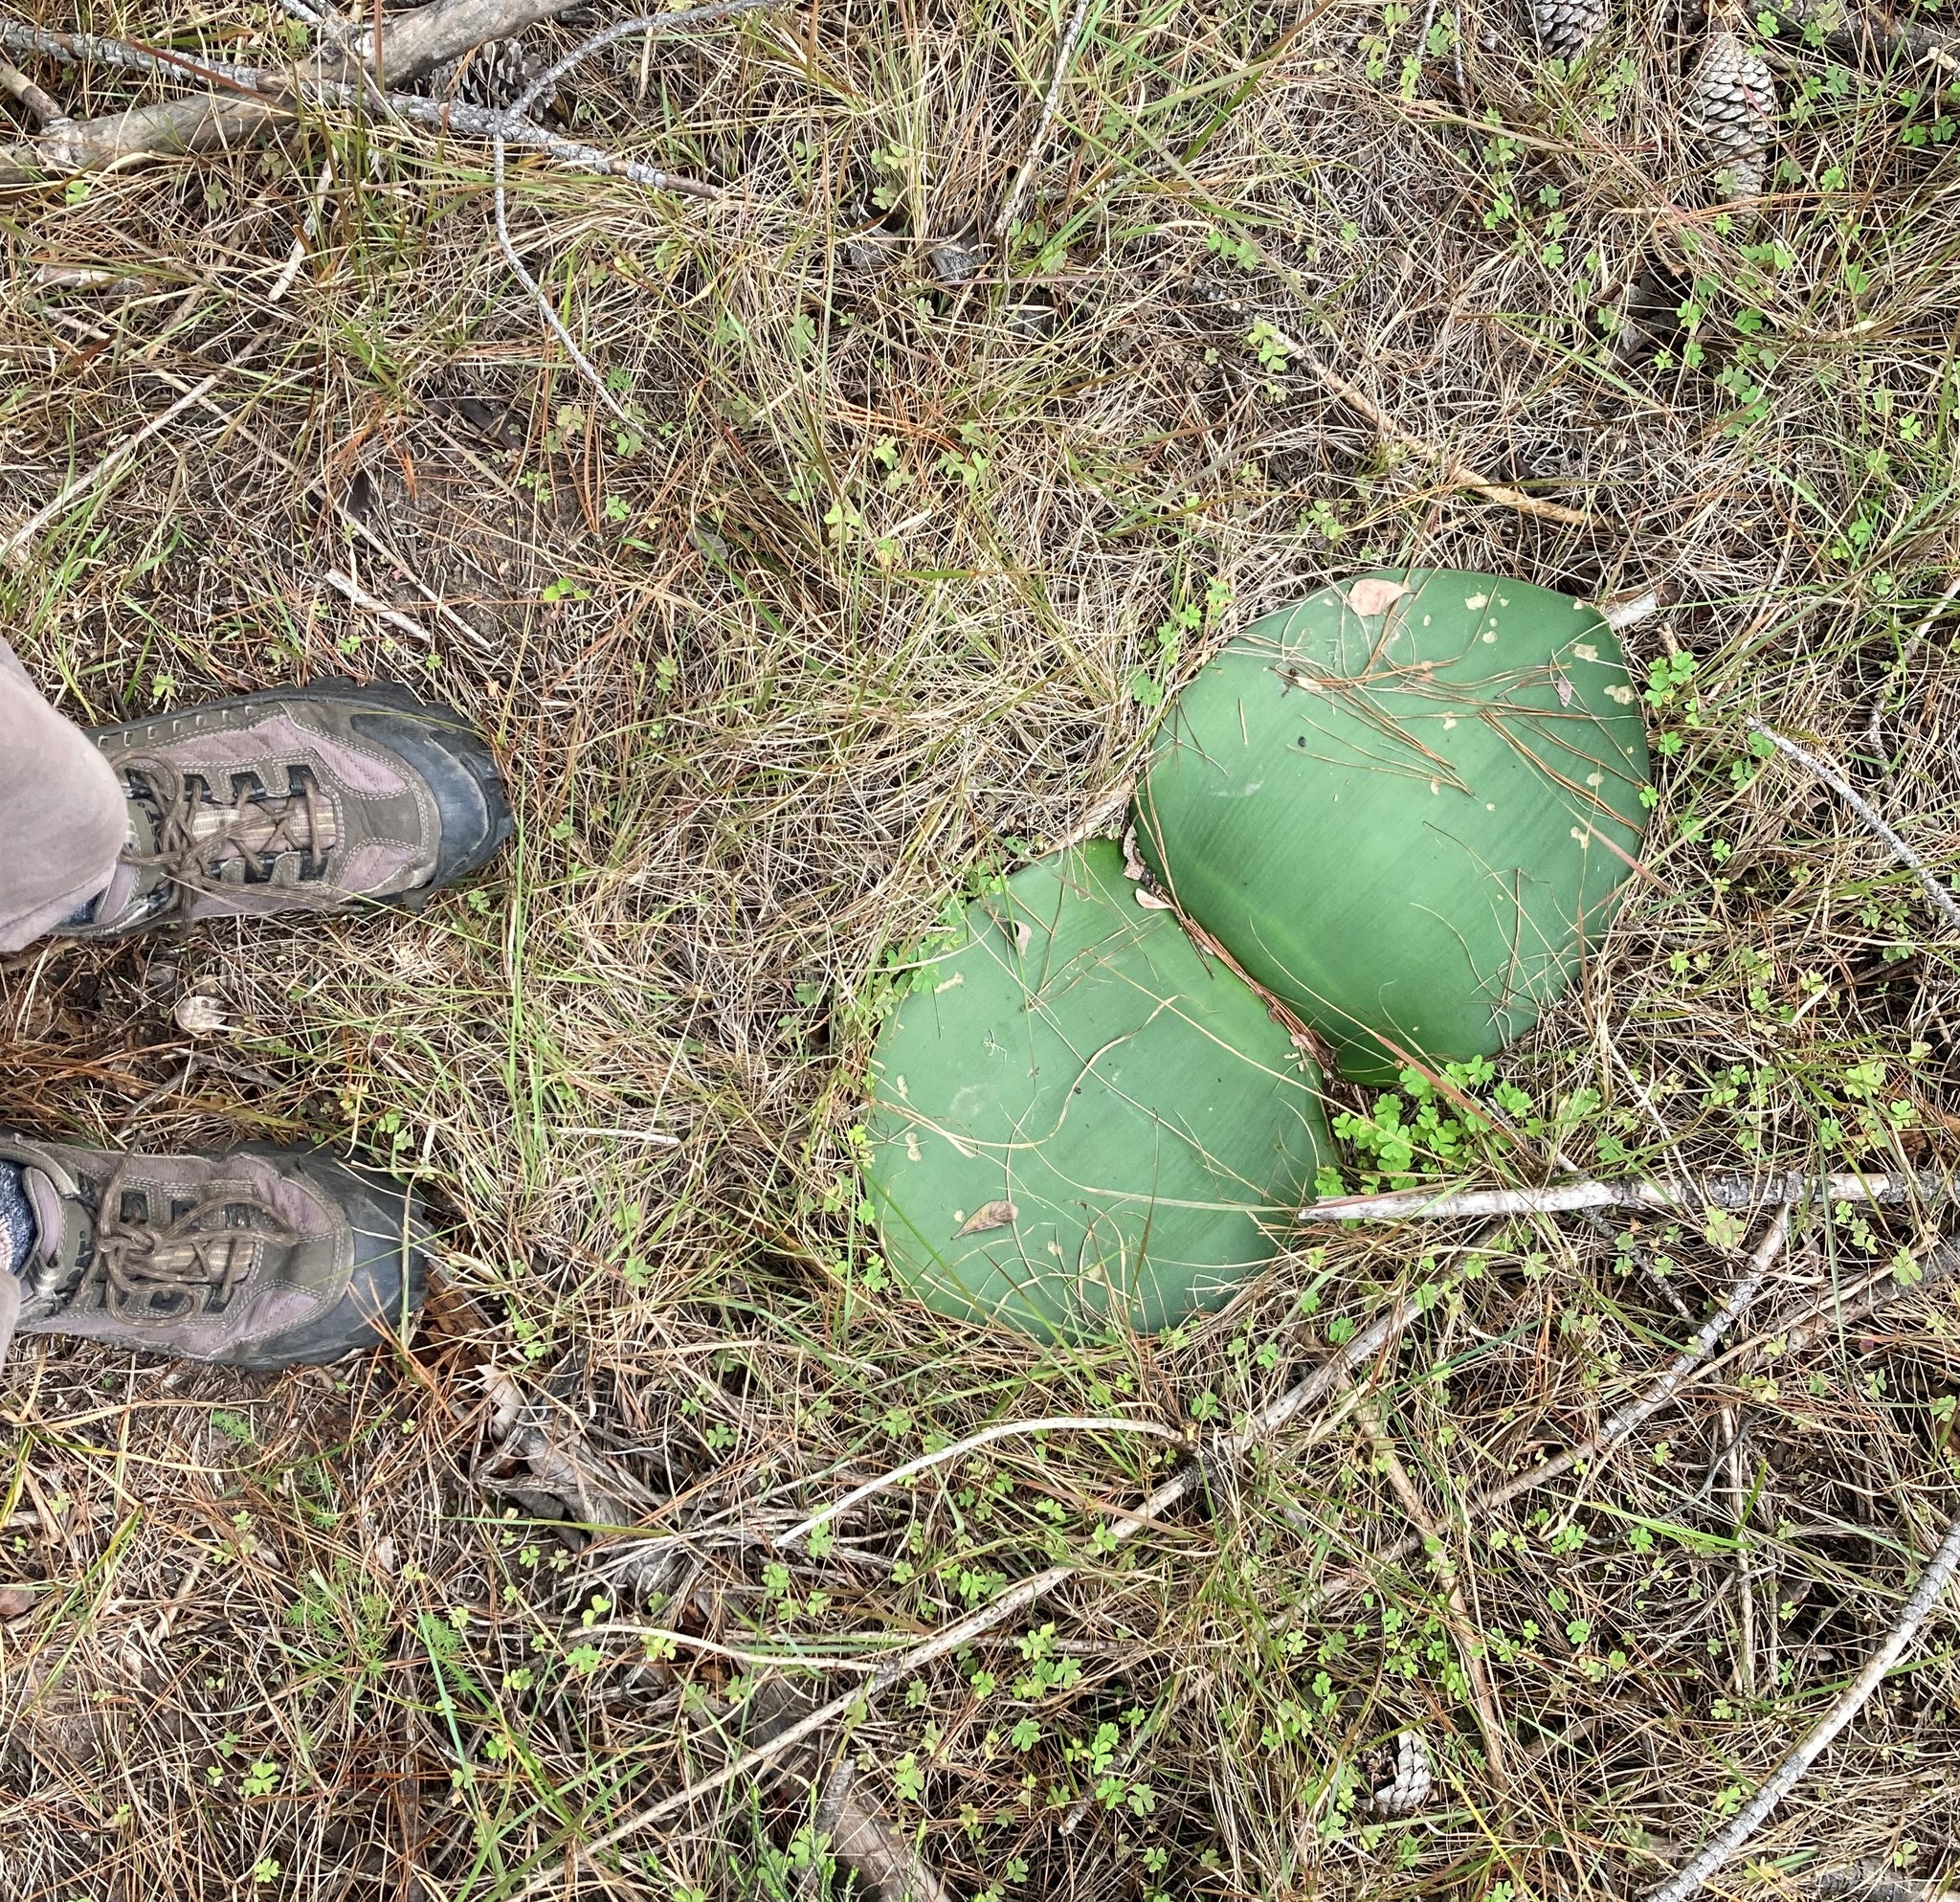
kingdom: Plantae
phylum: Tracheophyta
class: Liliopsida
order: Asparagales
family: Amaryllidaceae
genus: Haemanthus
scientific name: Haemanthus sanguineus
